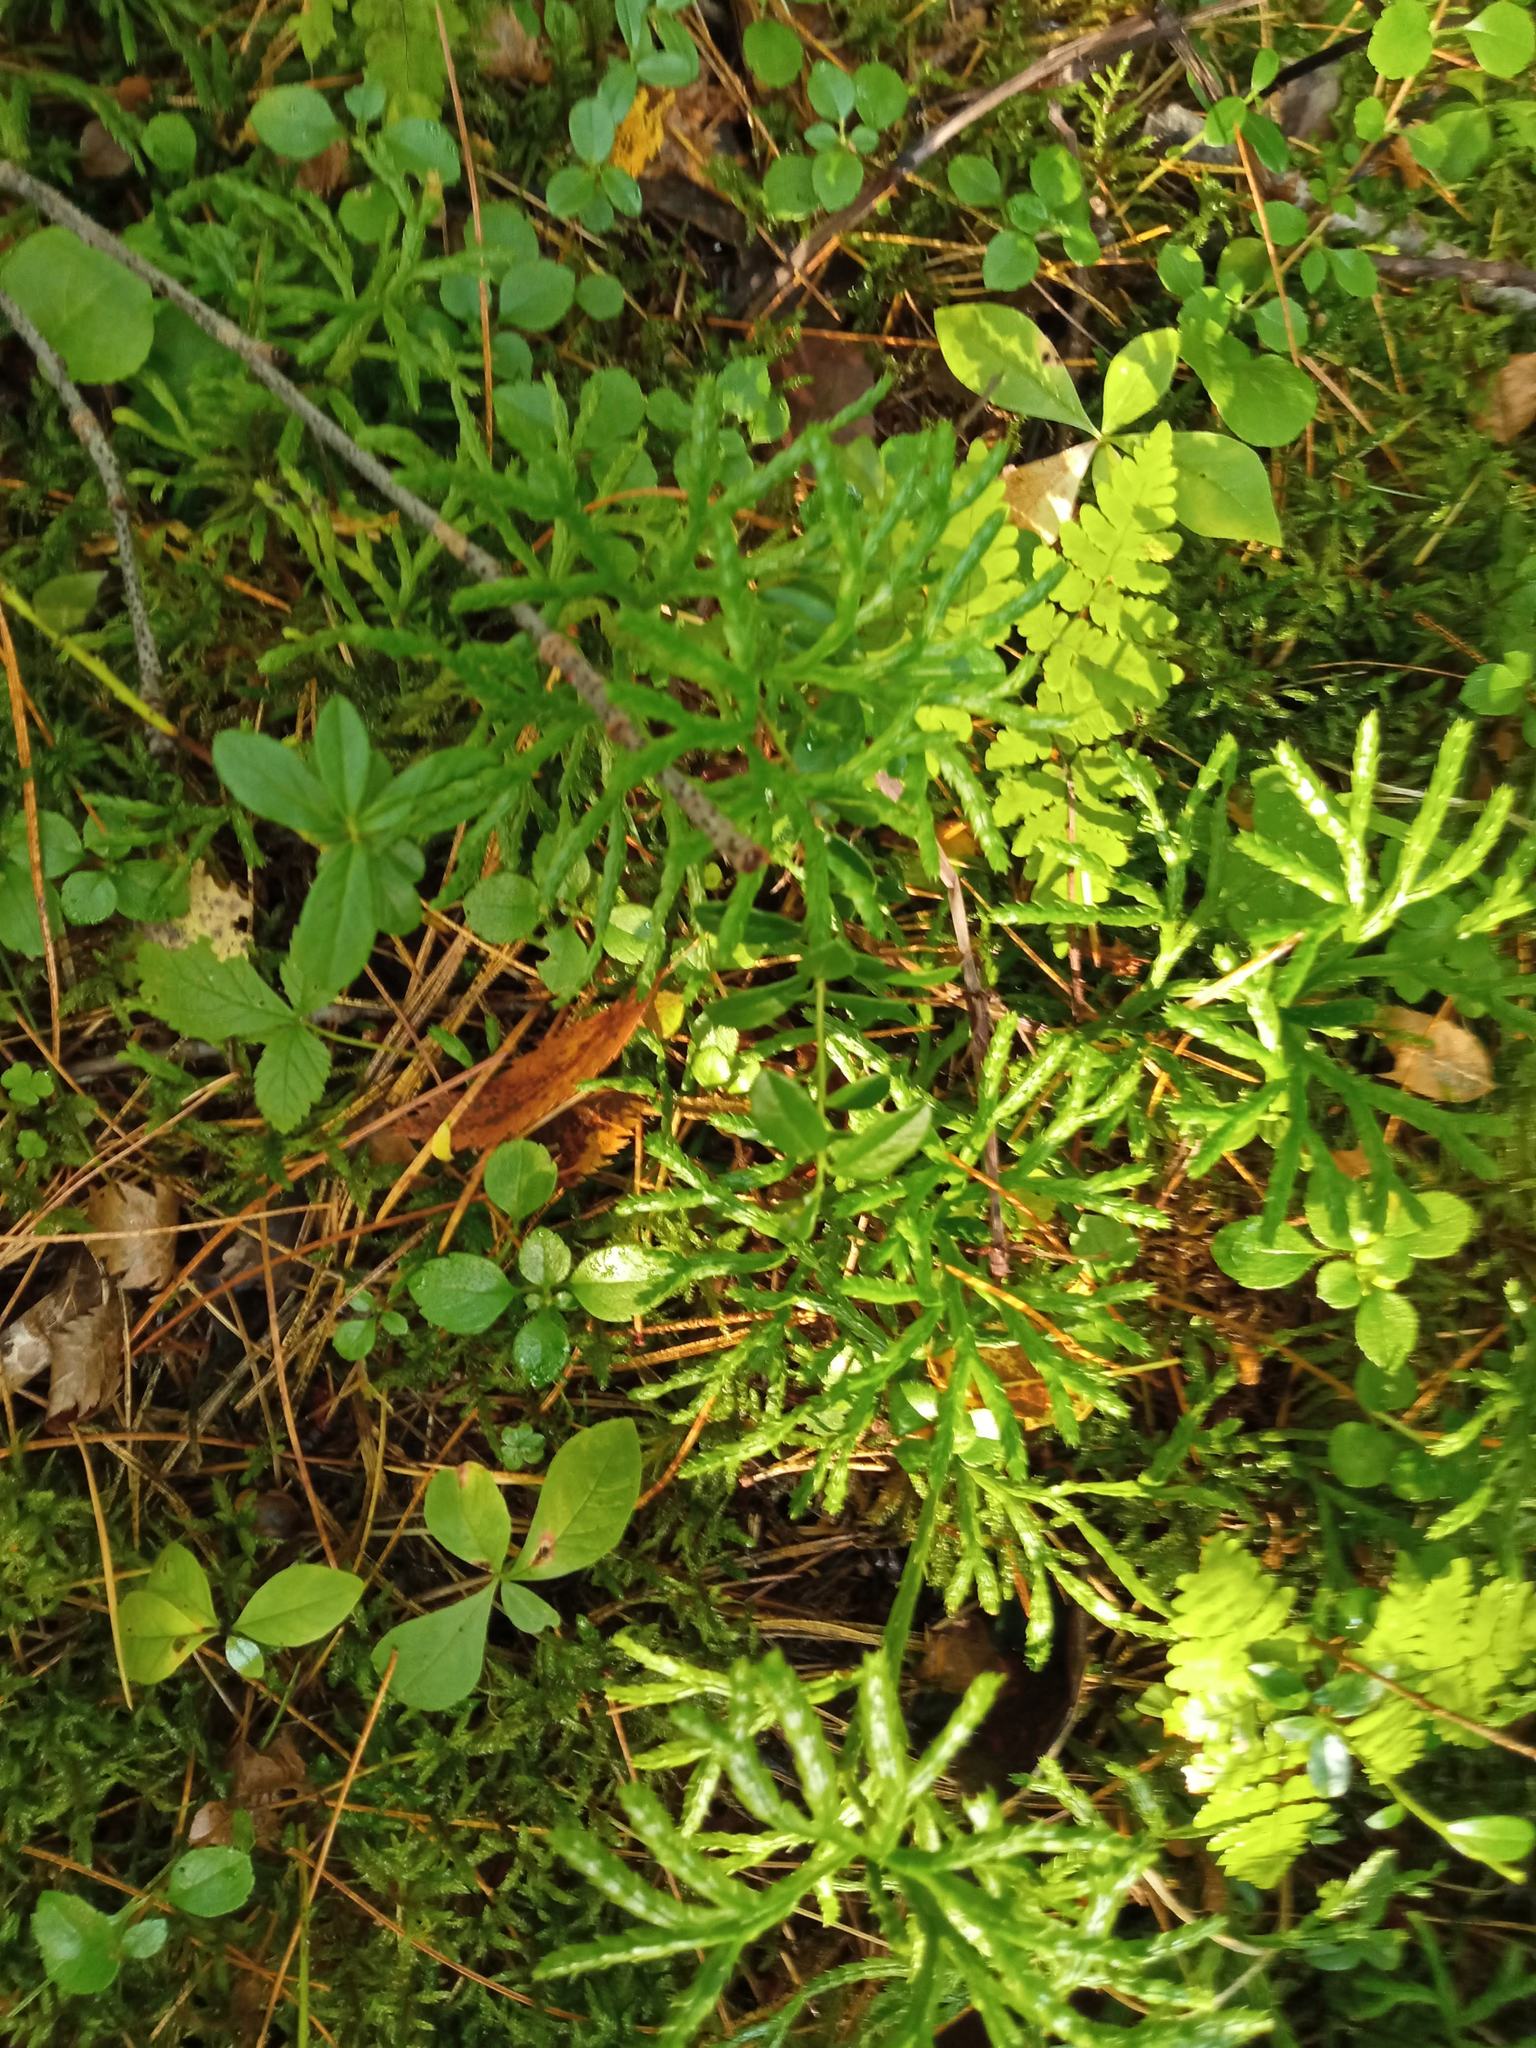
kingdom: Plantae
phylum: Tracheophyta
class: Lycopodiopsida
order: Lycopodiales
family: Lycopodiaceae
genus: Diphasiastrum
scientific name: Diphasiastrum complanatum
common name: Northern running-pine
